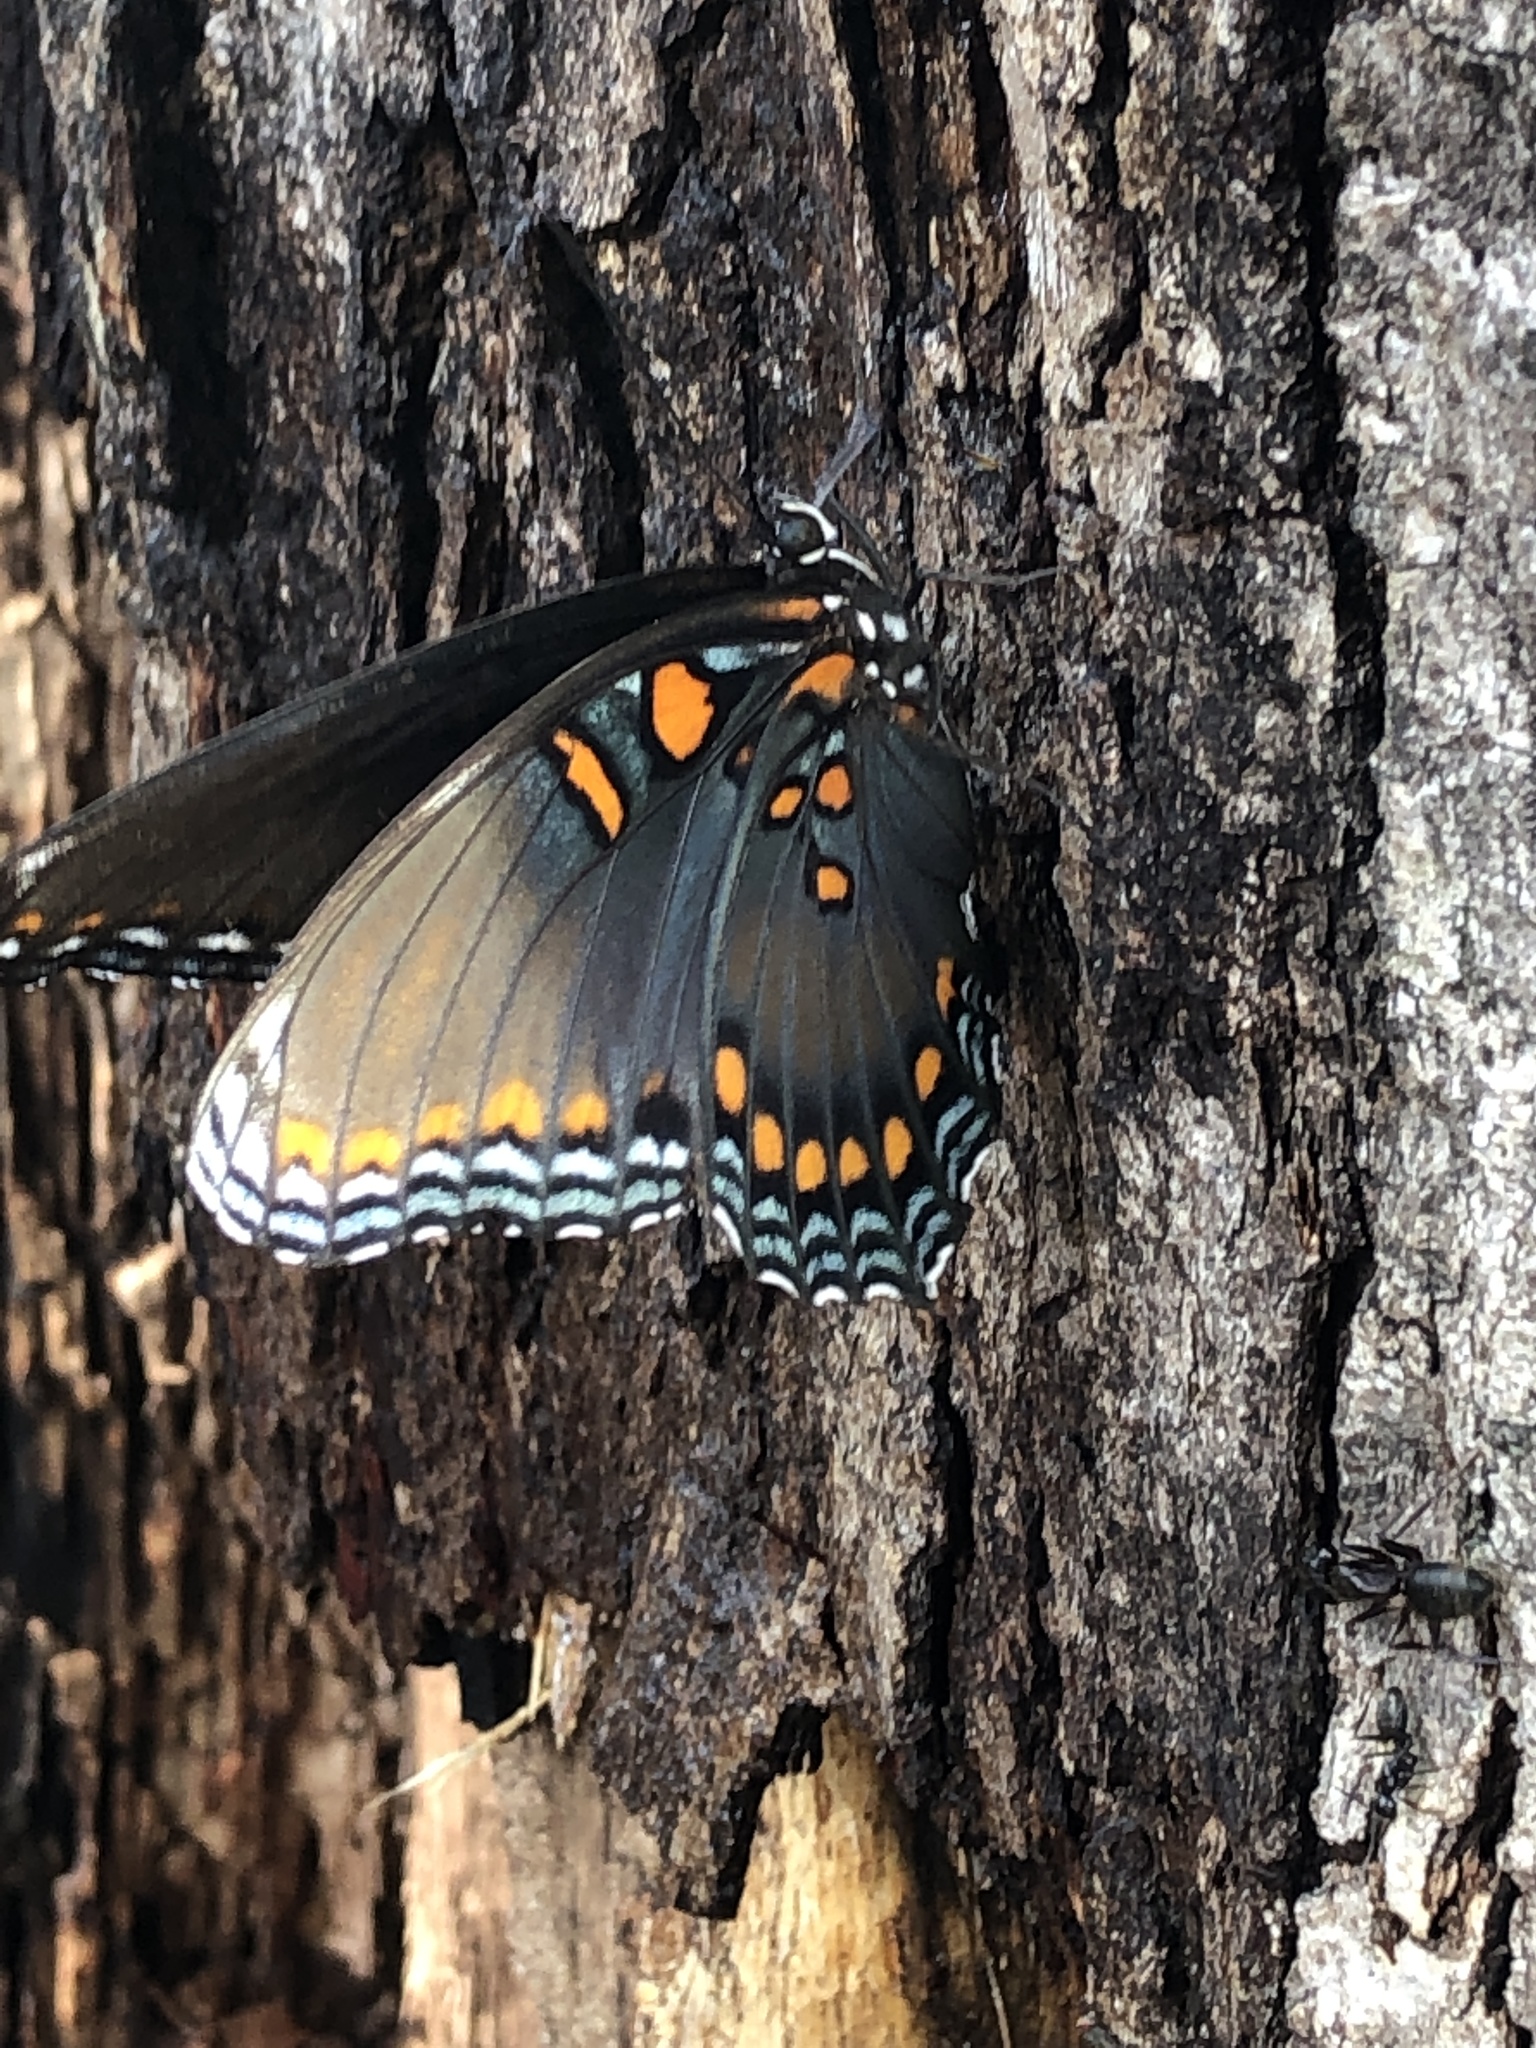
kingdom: Animalia
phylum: Arthropoda
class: Insecta
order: Lepidoptera
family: Nymphalidae
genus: Limenitis
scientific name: Limenitis astyanax
